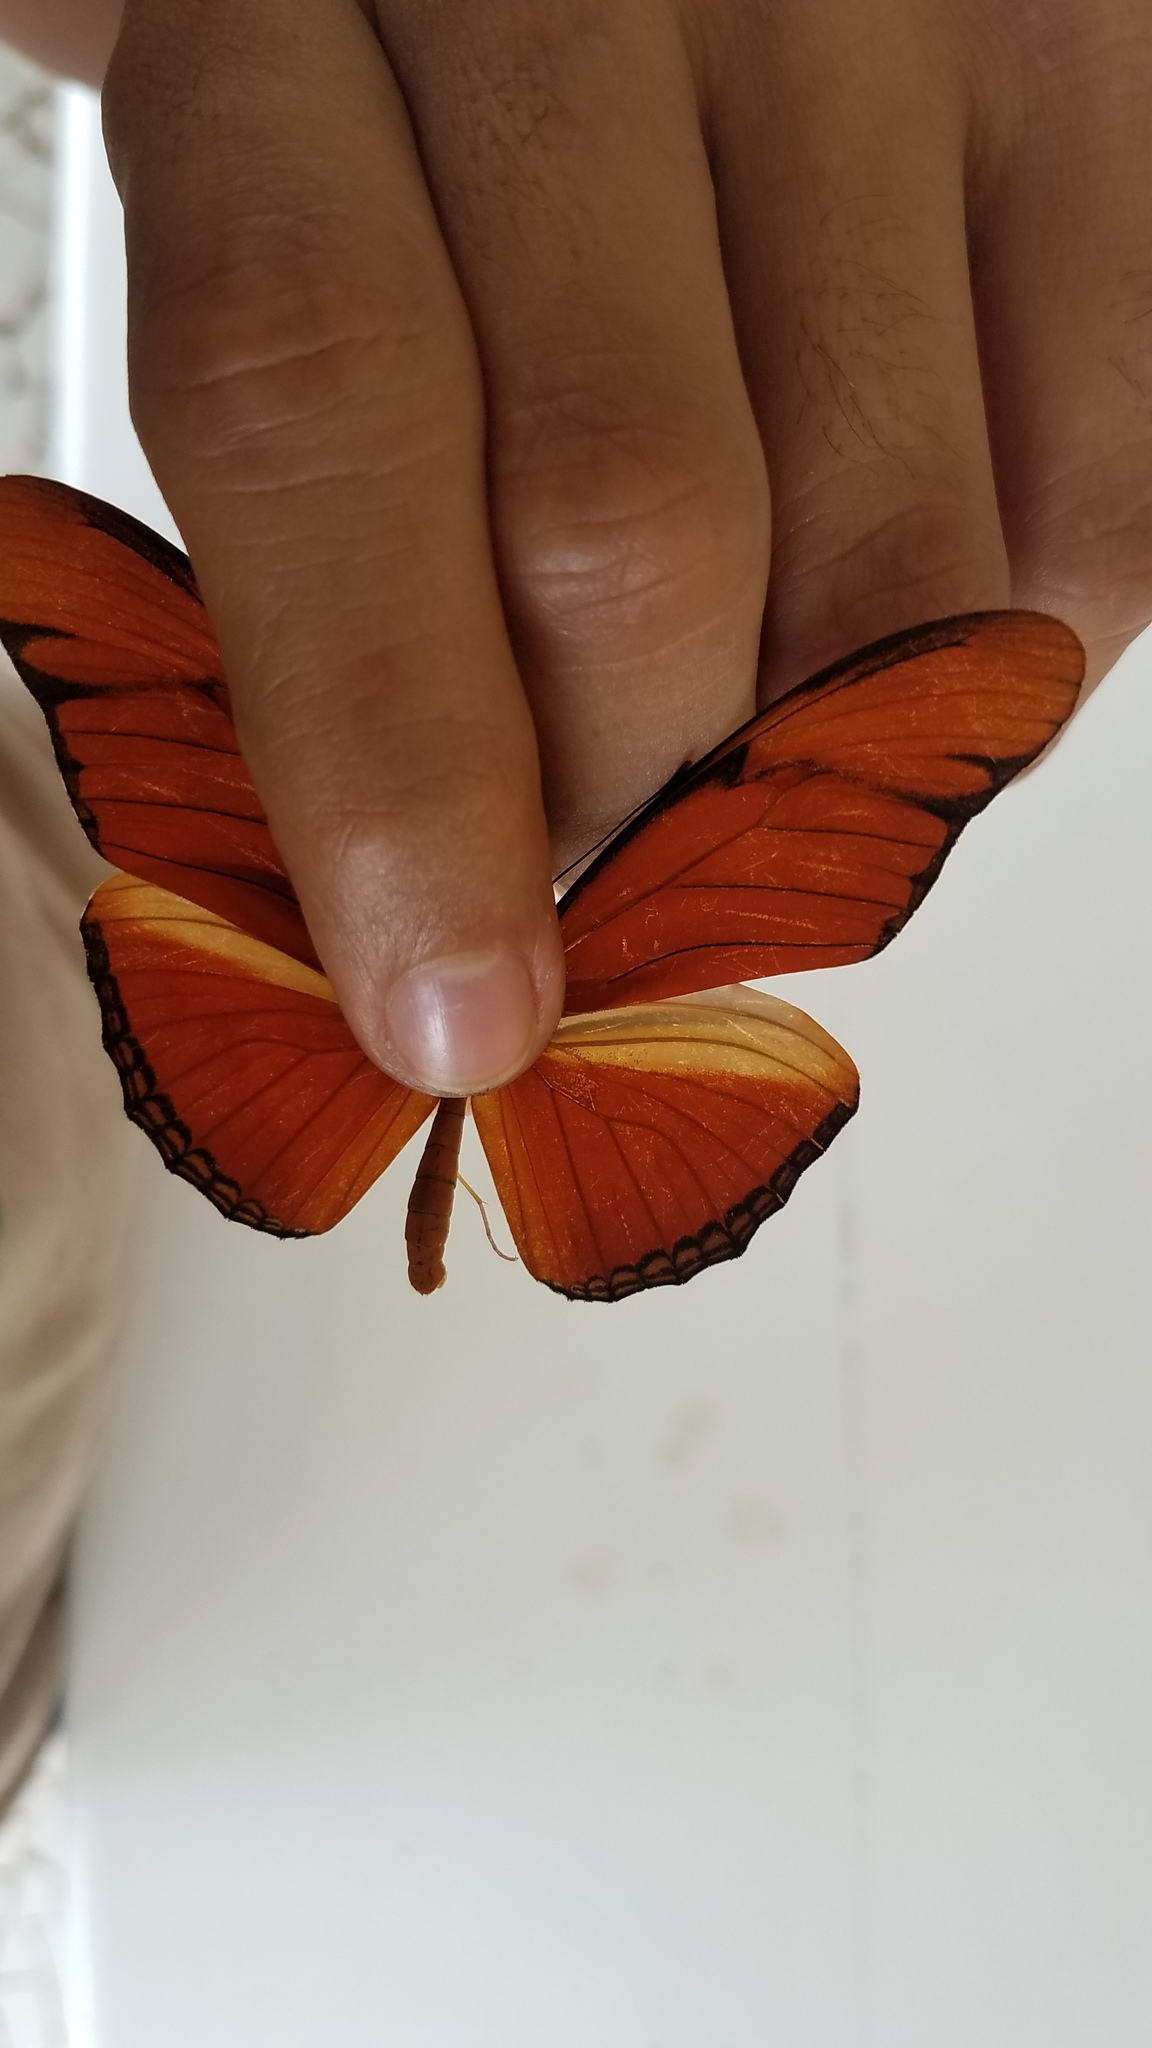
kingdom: Animalia
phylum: Arthropoda
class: Insecta
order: Lepidoptera
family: Nymphalidae
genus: Dryas
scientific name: Dryas iulia
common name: Flambeau
